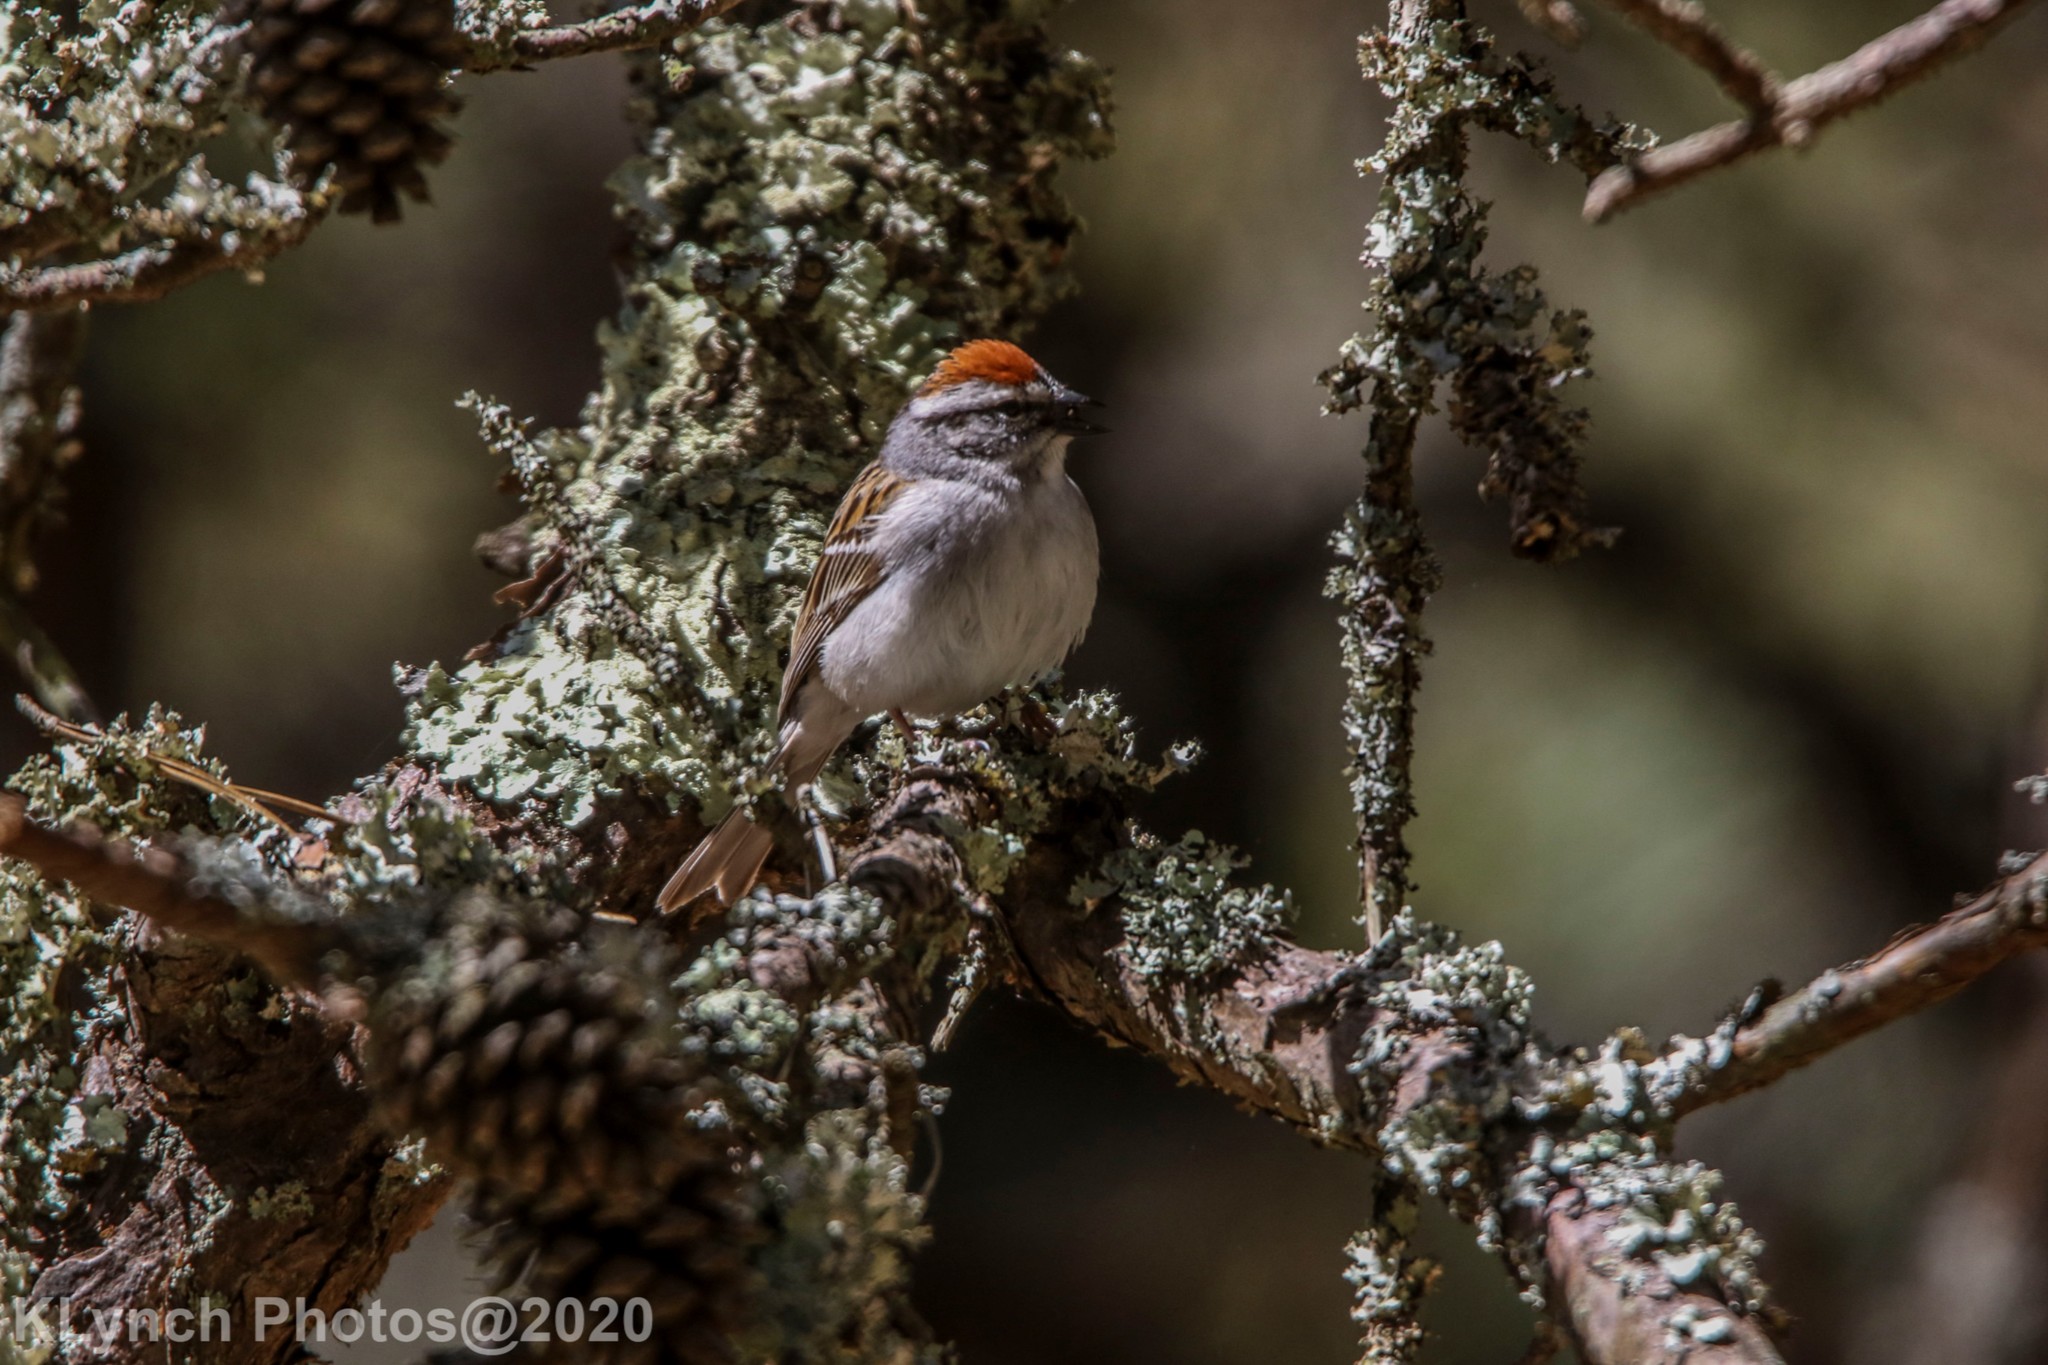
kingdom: Animalia
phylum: Chordata
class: Aves
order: Passeriformes
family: Passerellidae
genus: Spizella
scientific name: Spizella passerina
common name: Chipping sparrow
